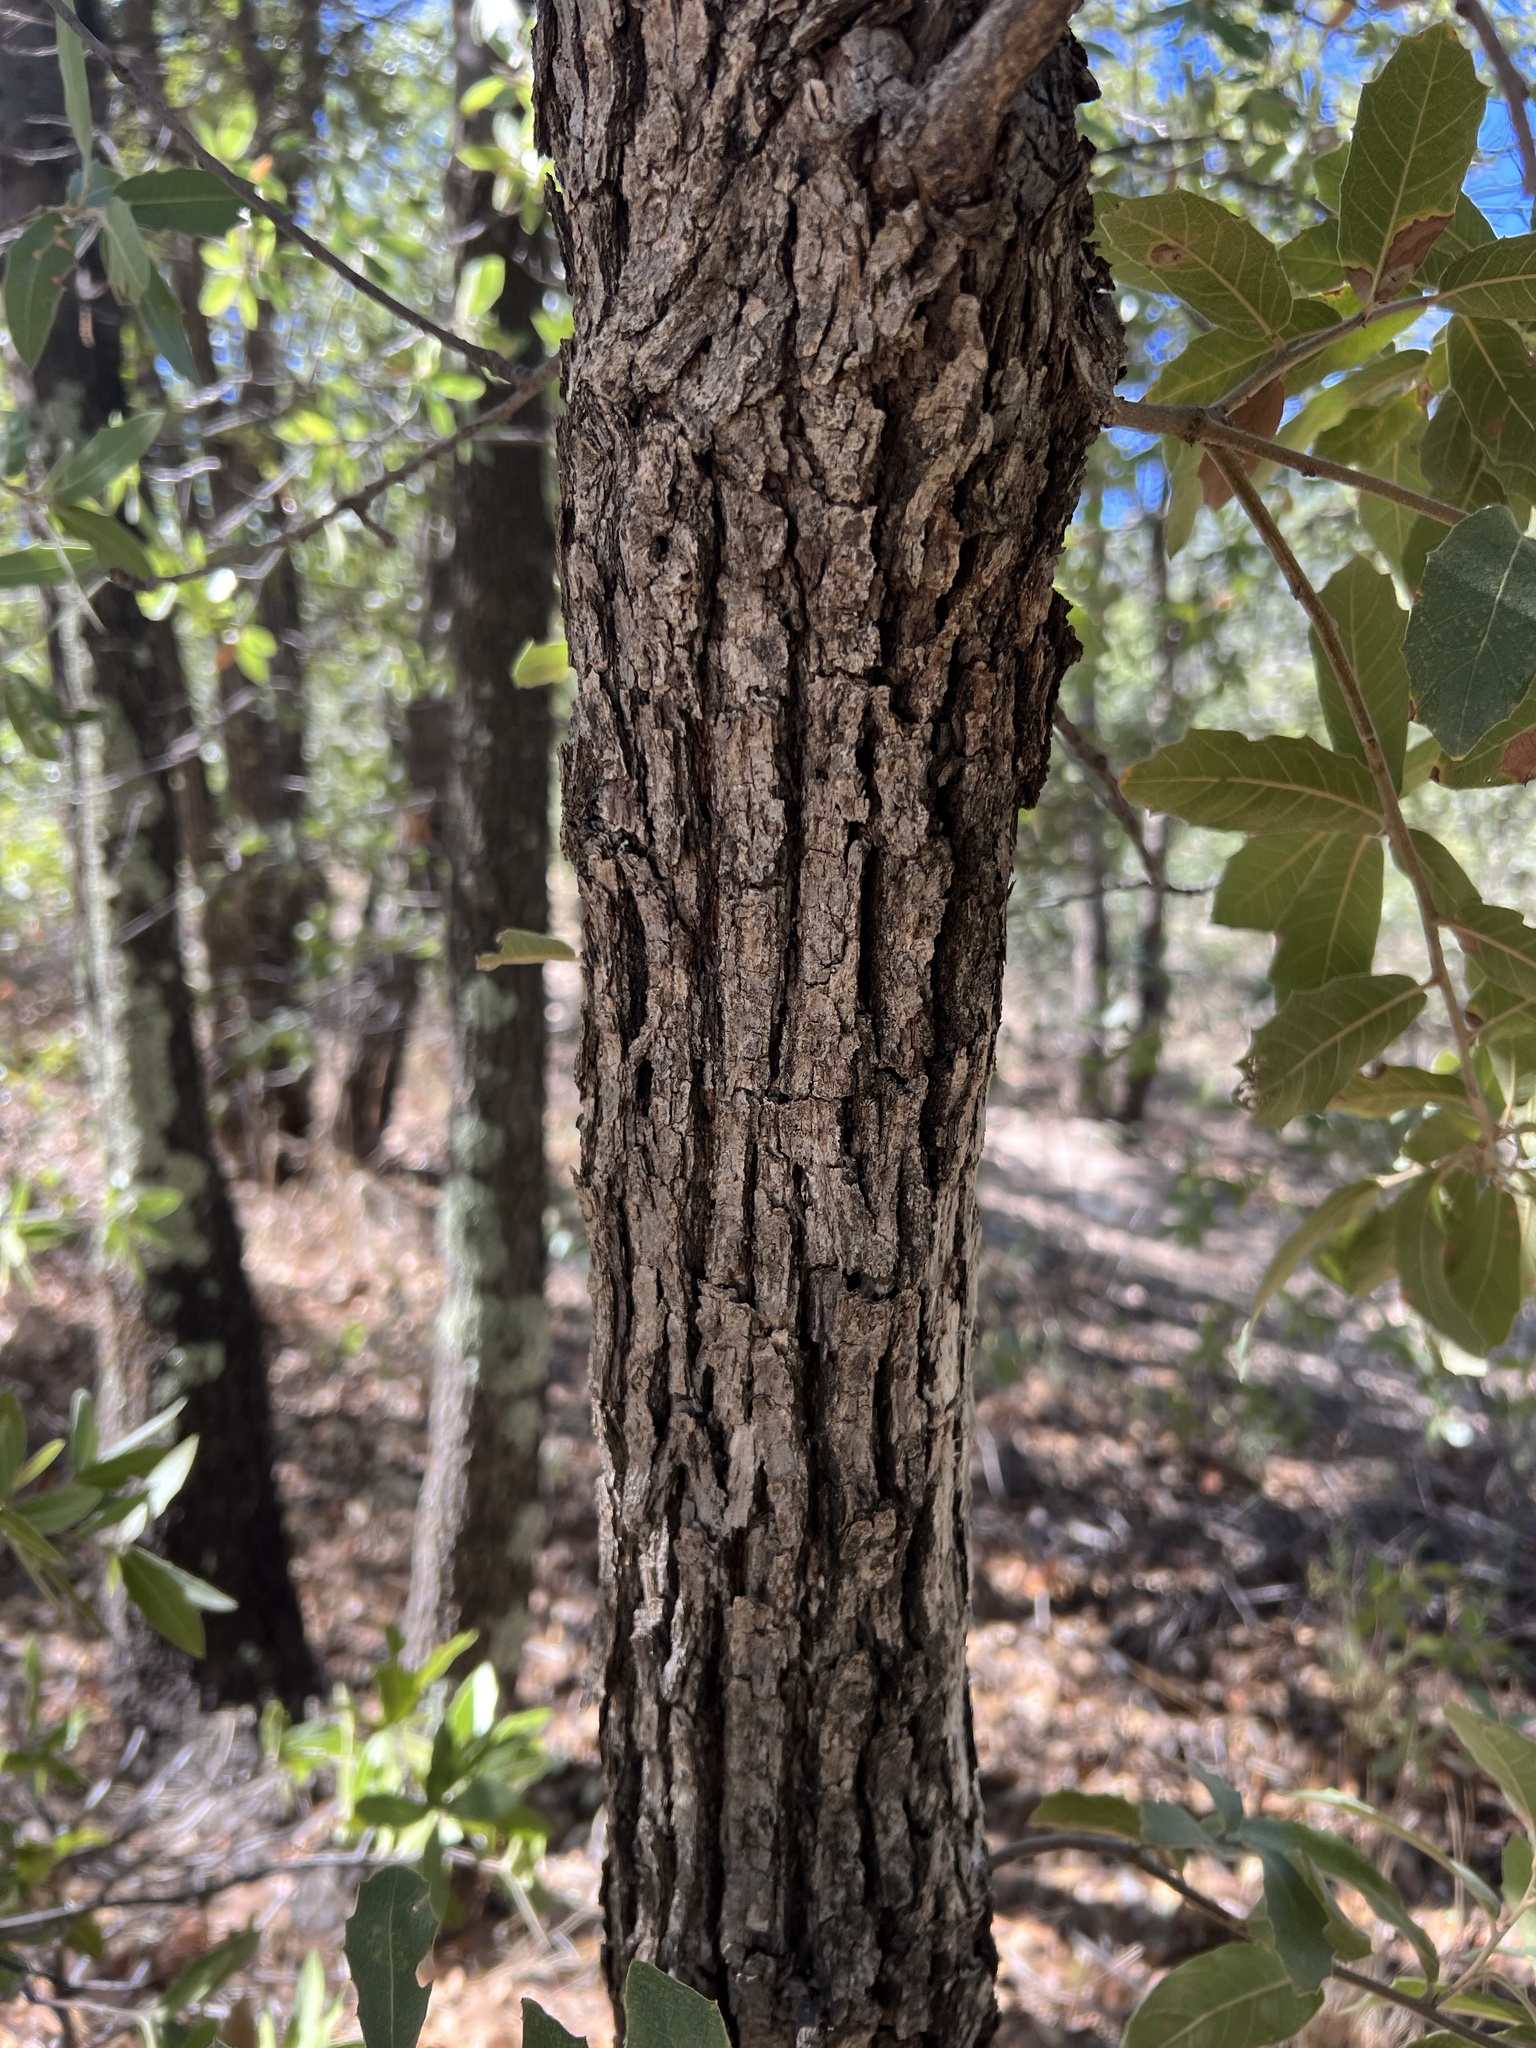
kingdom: Plantae
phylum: Tracheophyta
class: Magnoliopsida
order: Fagales
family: Fagaceae
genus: Quercus
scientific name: Quercus arizonica
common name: Arizona white oak
